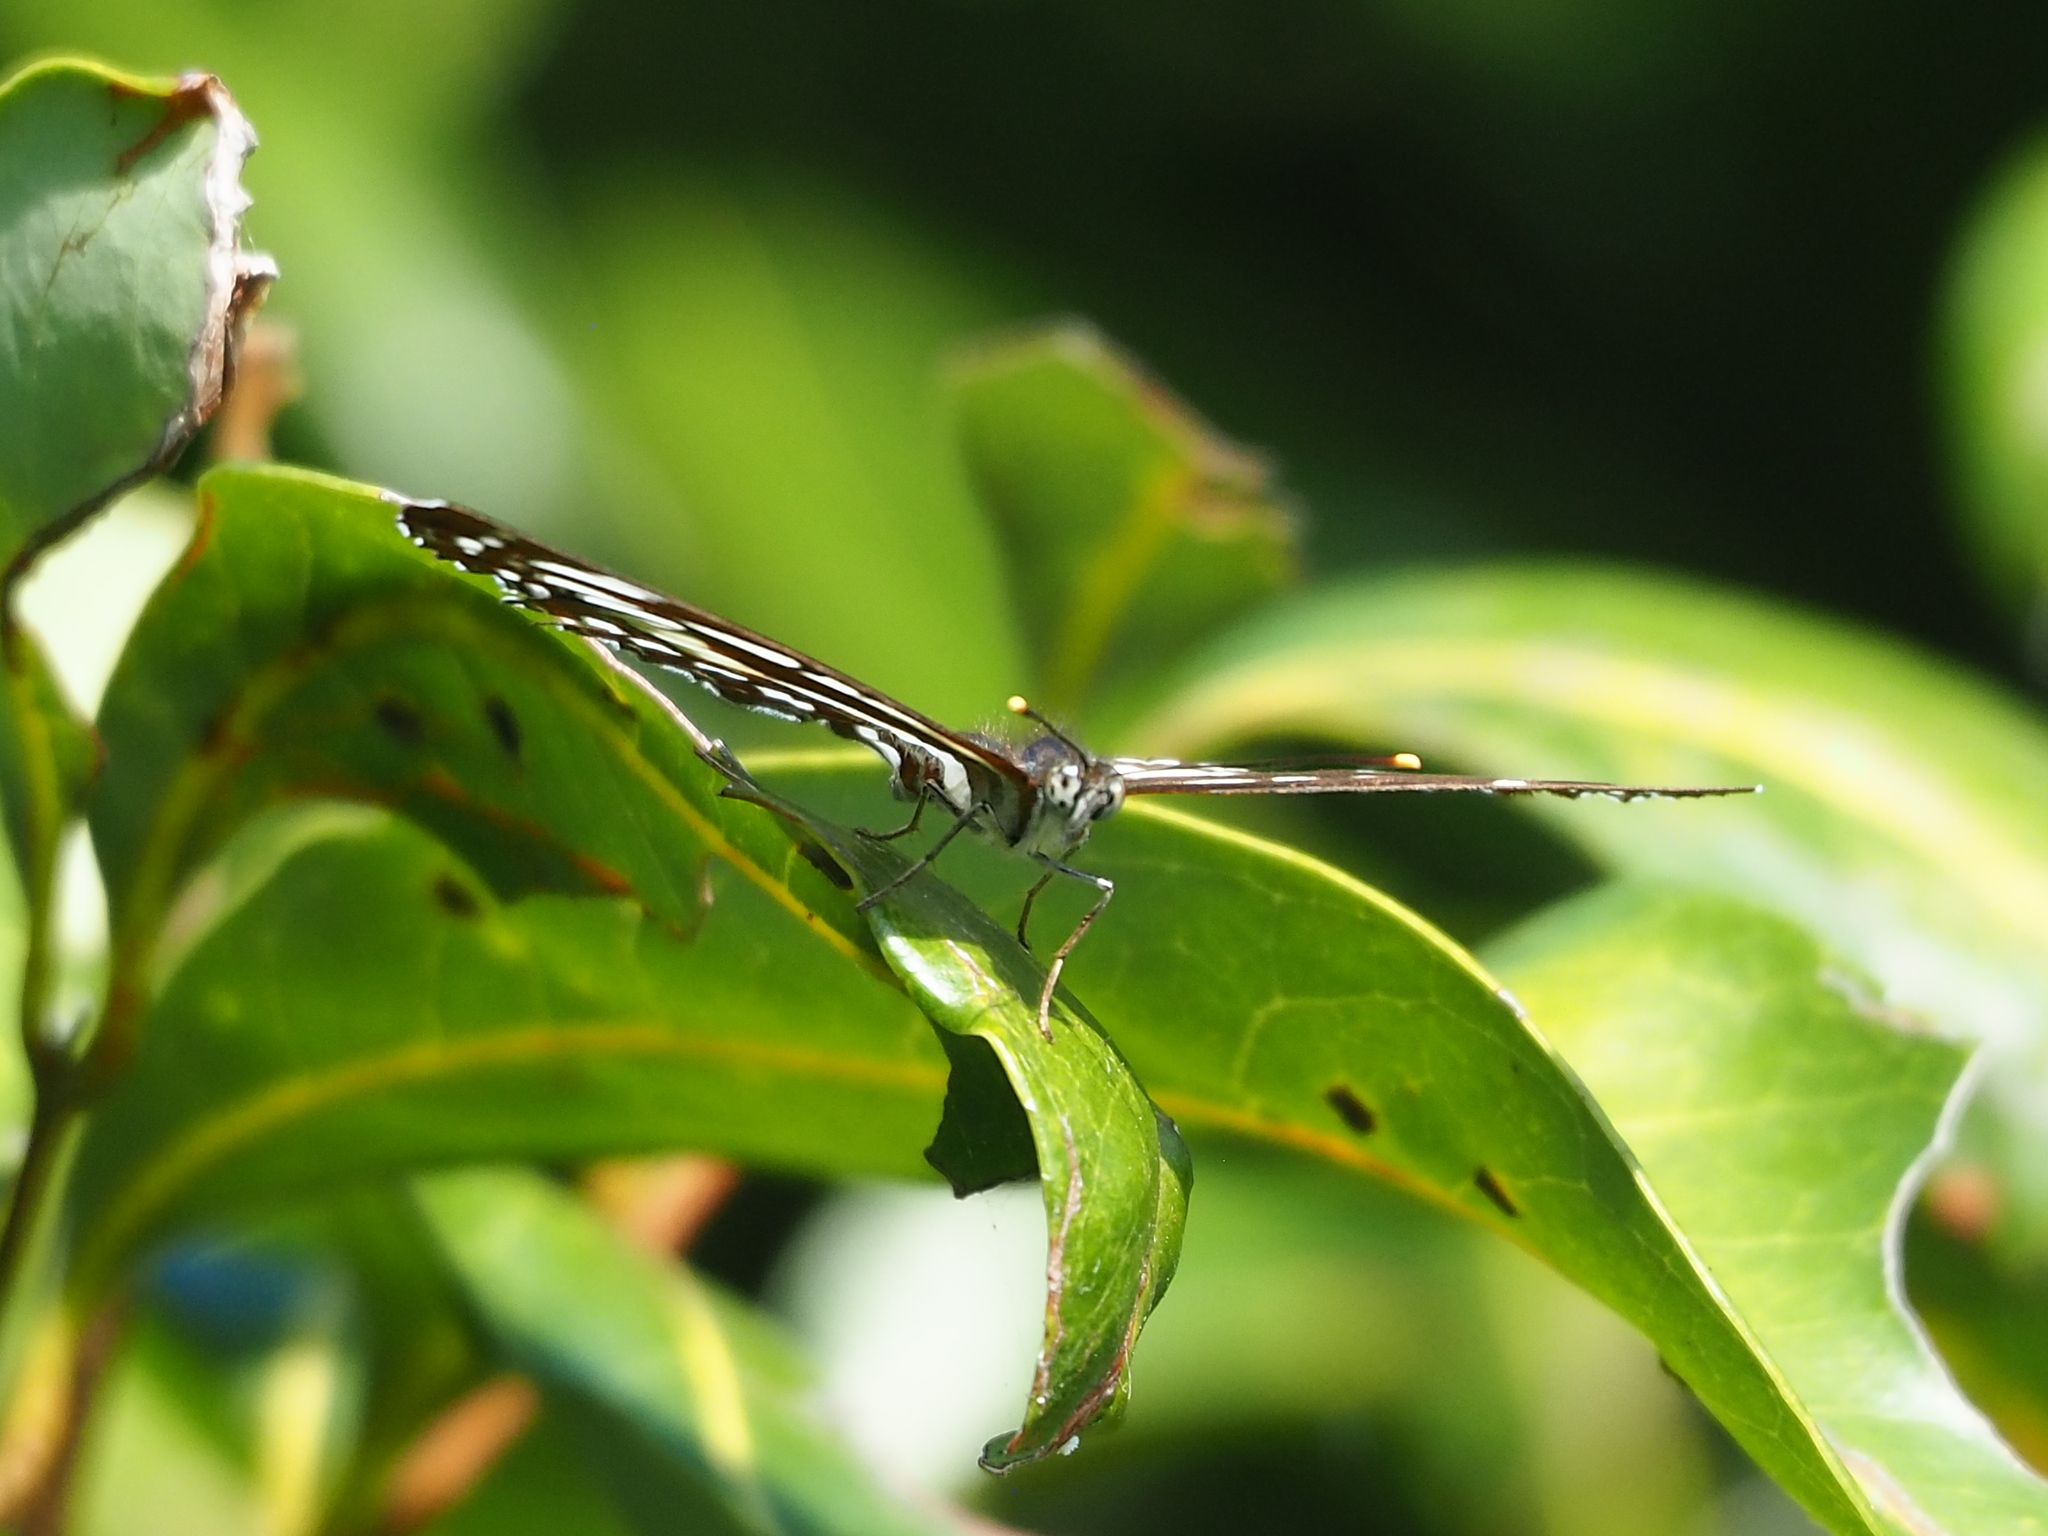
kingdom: Animalia
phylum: Arthropoda
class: Insecta
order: Lepidoptera
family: Nymphalidae
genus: Neptis
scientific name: Neptis hylas
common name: Common sailer
